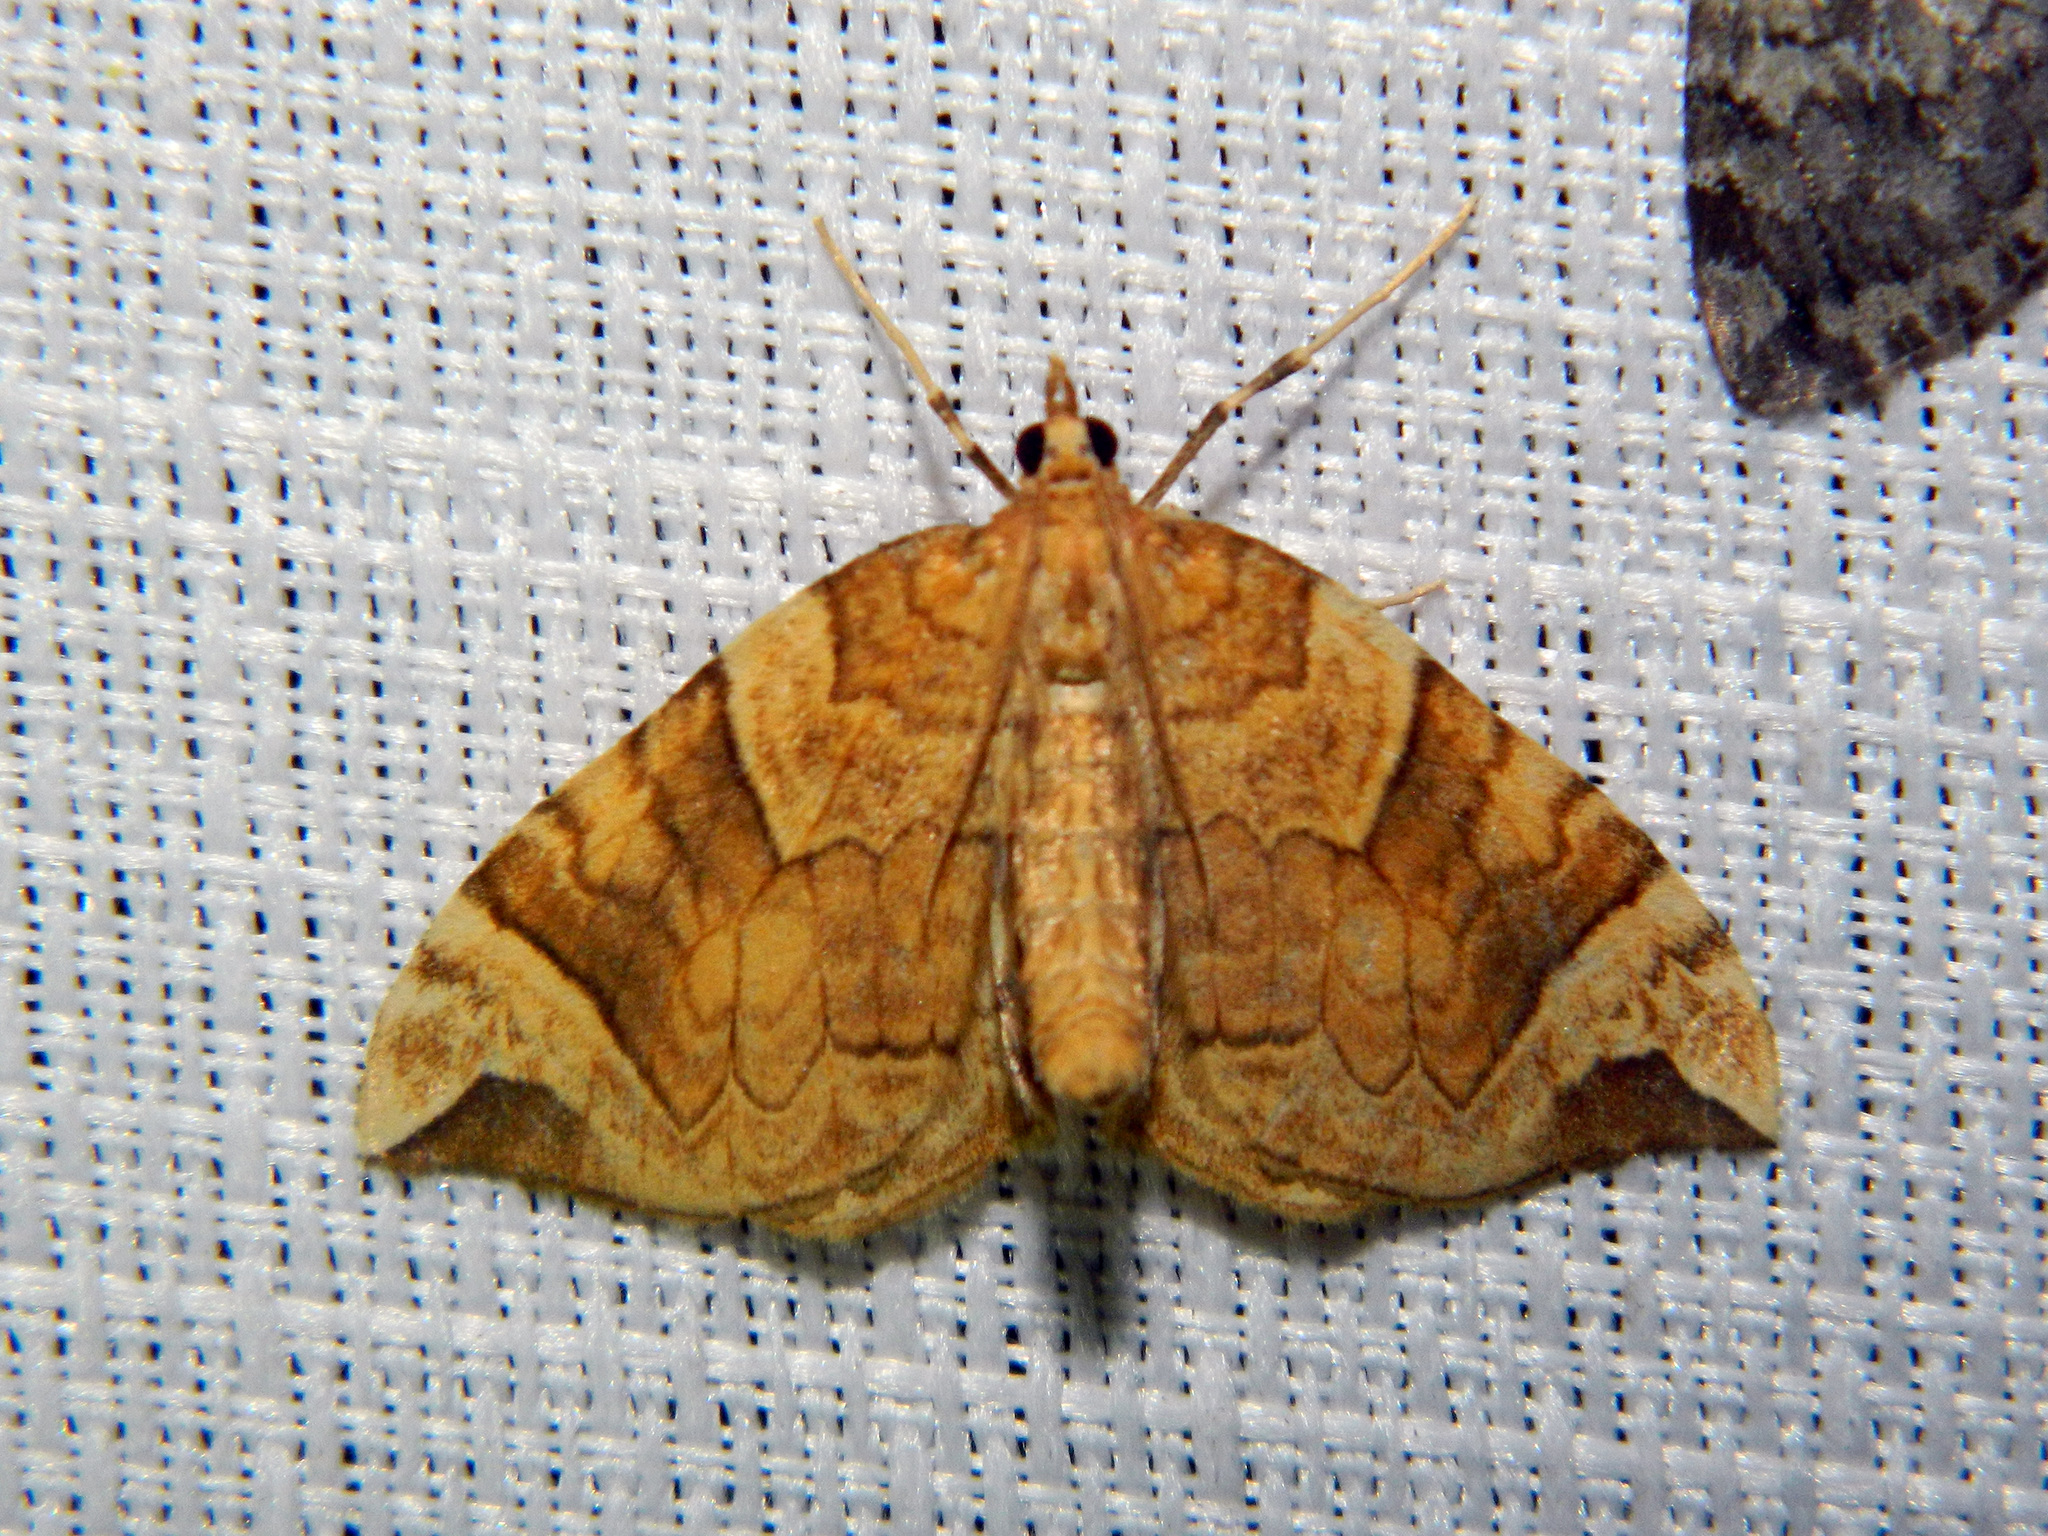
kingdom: Animalia
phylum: Arthropoda
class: Insecta
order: Lepidoptera
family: Geometridae
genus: Eulithis
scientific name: Eulithis propulsata
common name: Currant eulithis moth
